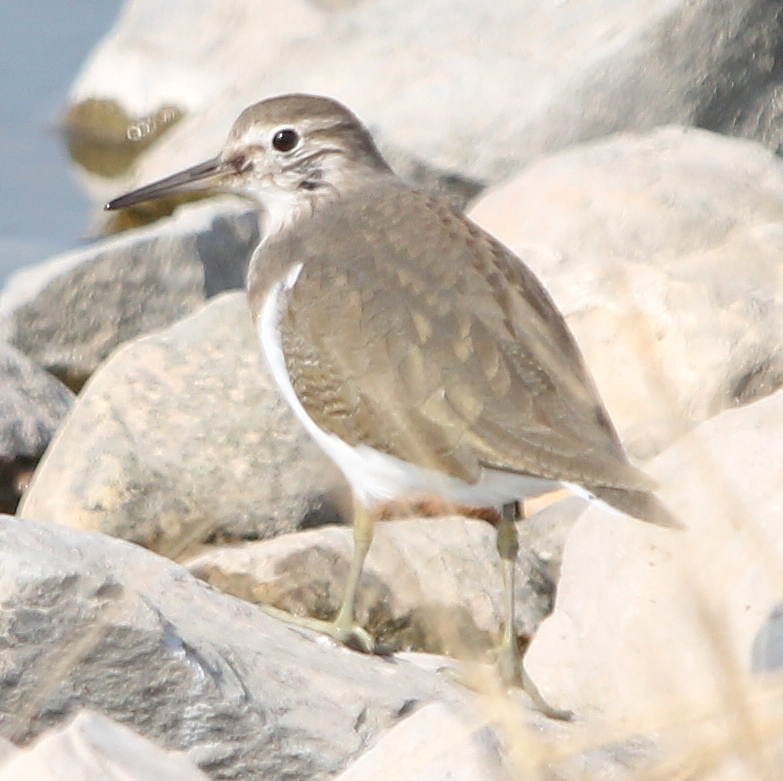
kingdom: Animalia
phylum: Chordata
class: Aves
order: Charadriiformes
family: Scolopacidae
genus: Actitis
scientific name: Actitis hypoleucos
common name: Common sandpiper
